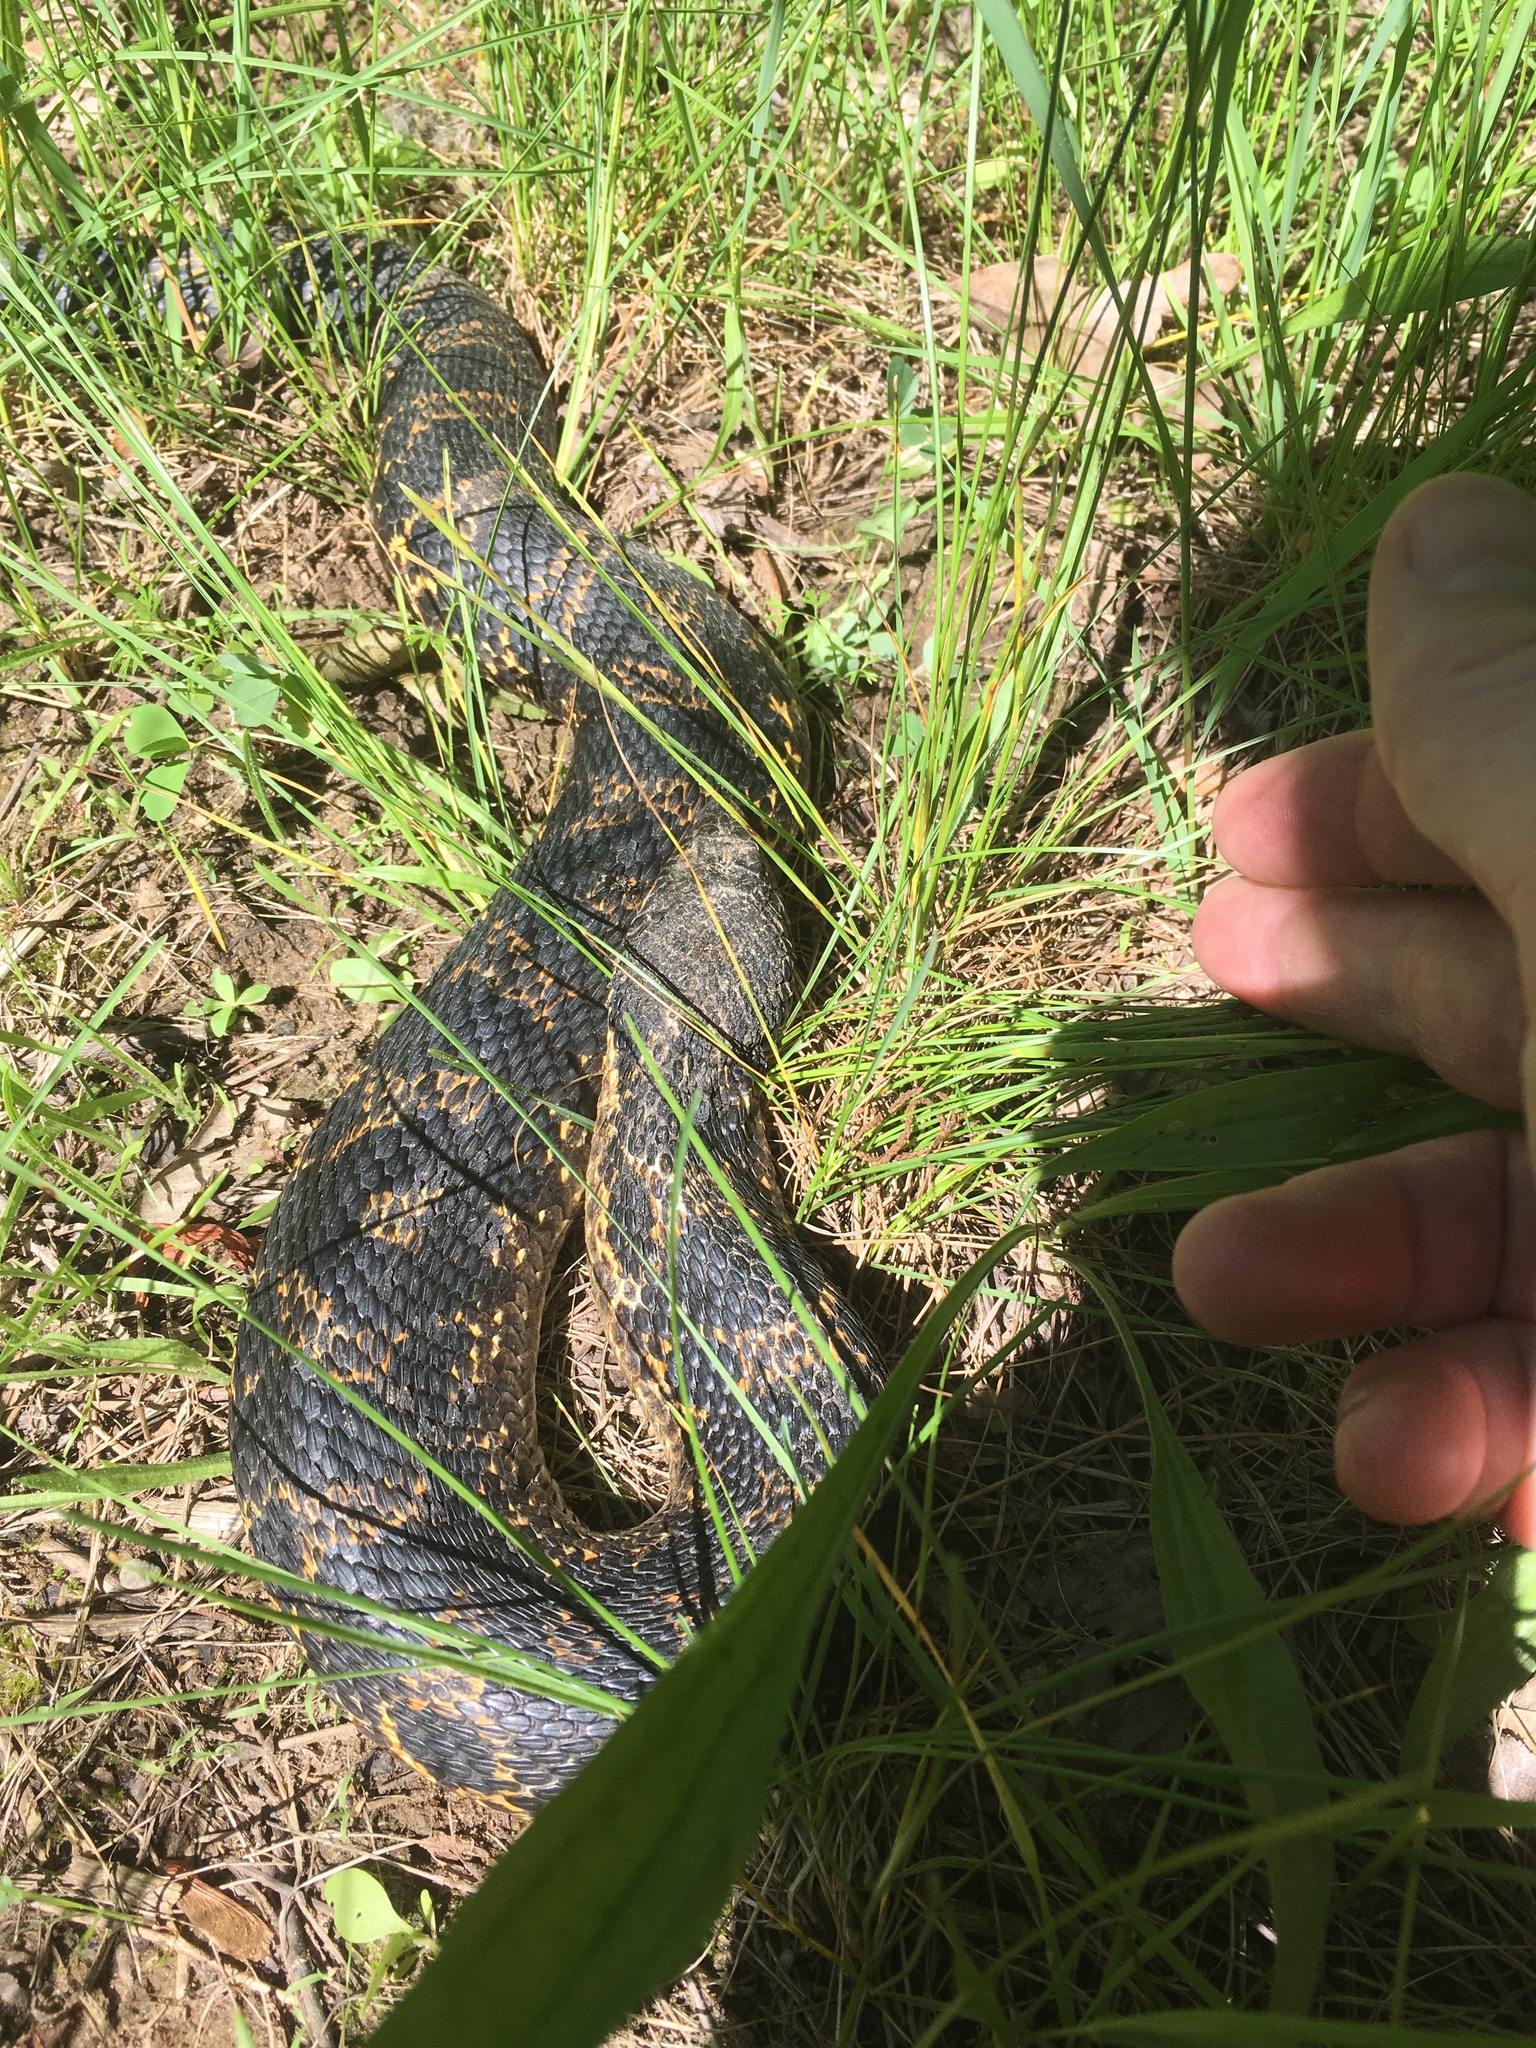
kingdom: Animalia
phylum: Chordata
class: Squamata
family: Colubridae
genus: Heterodon
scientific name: Heterodon platirhinos
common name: Eastern hognose snake
